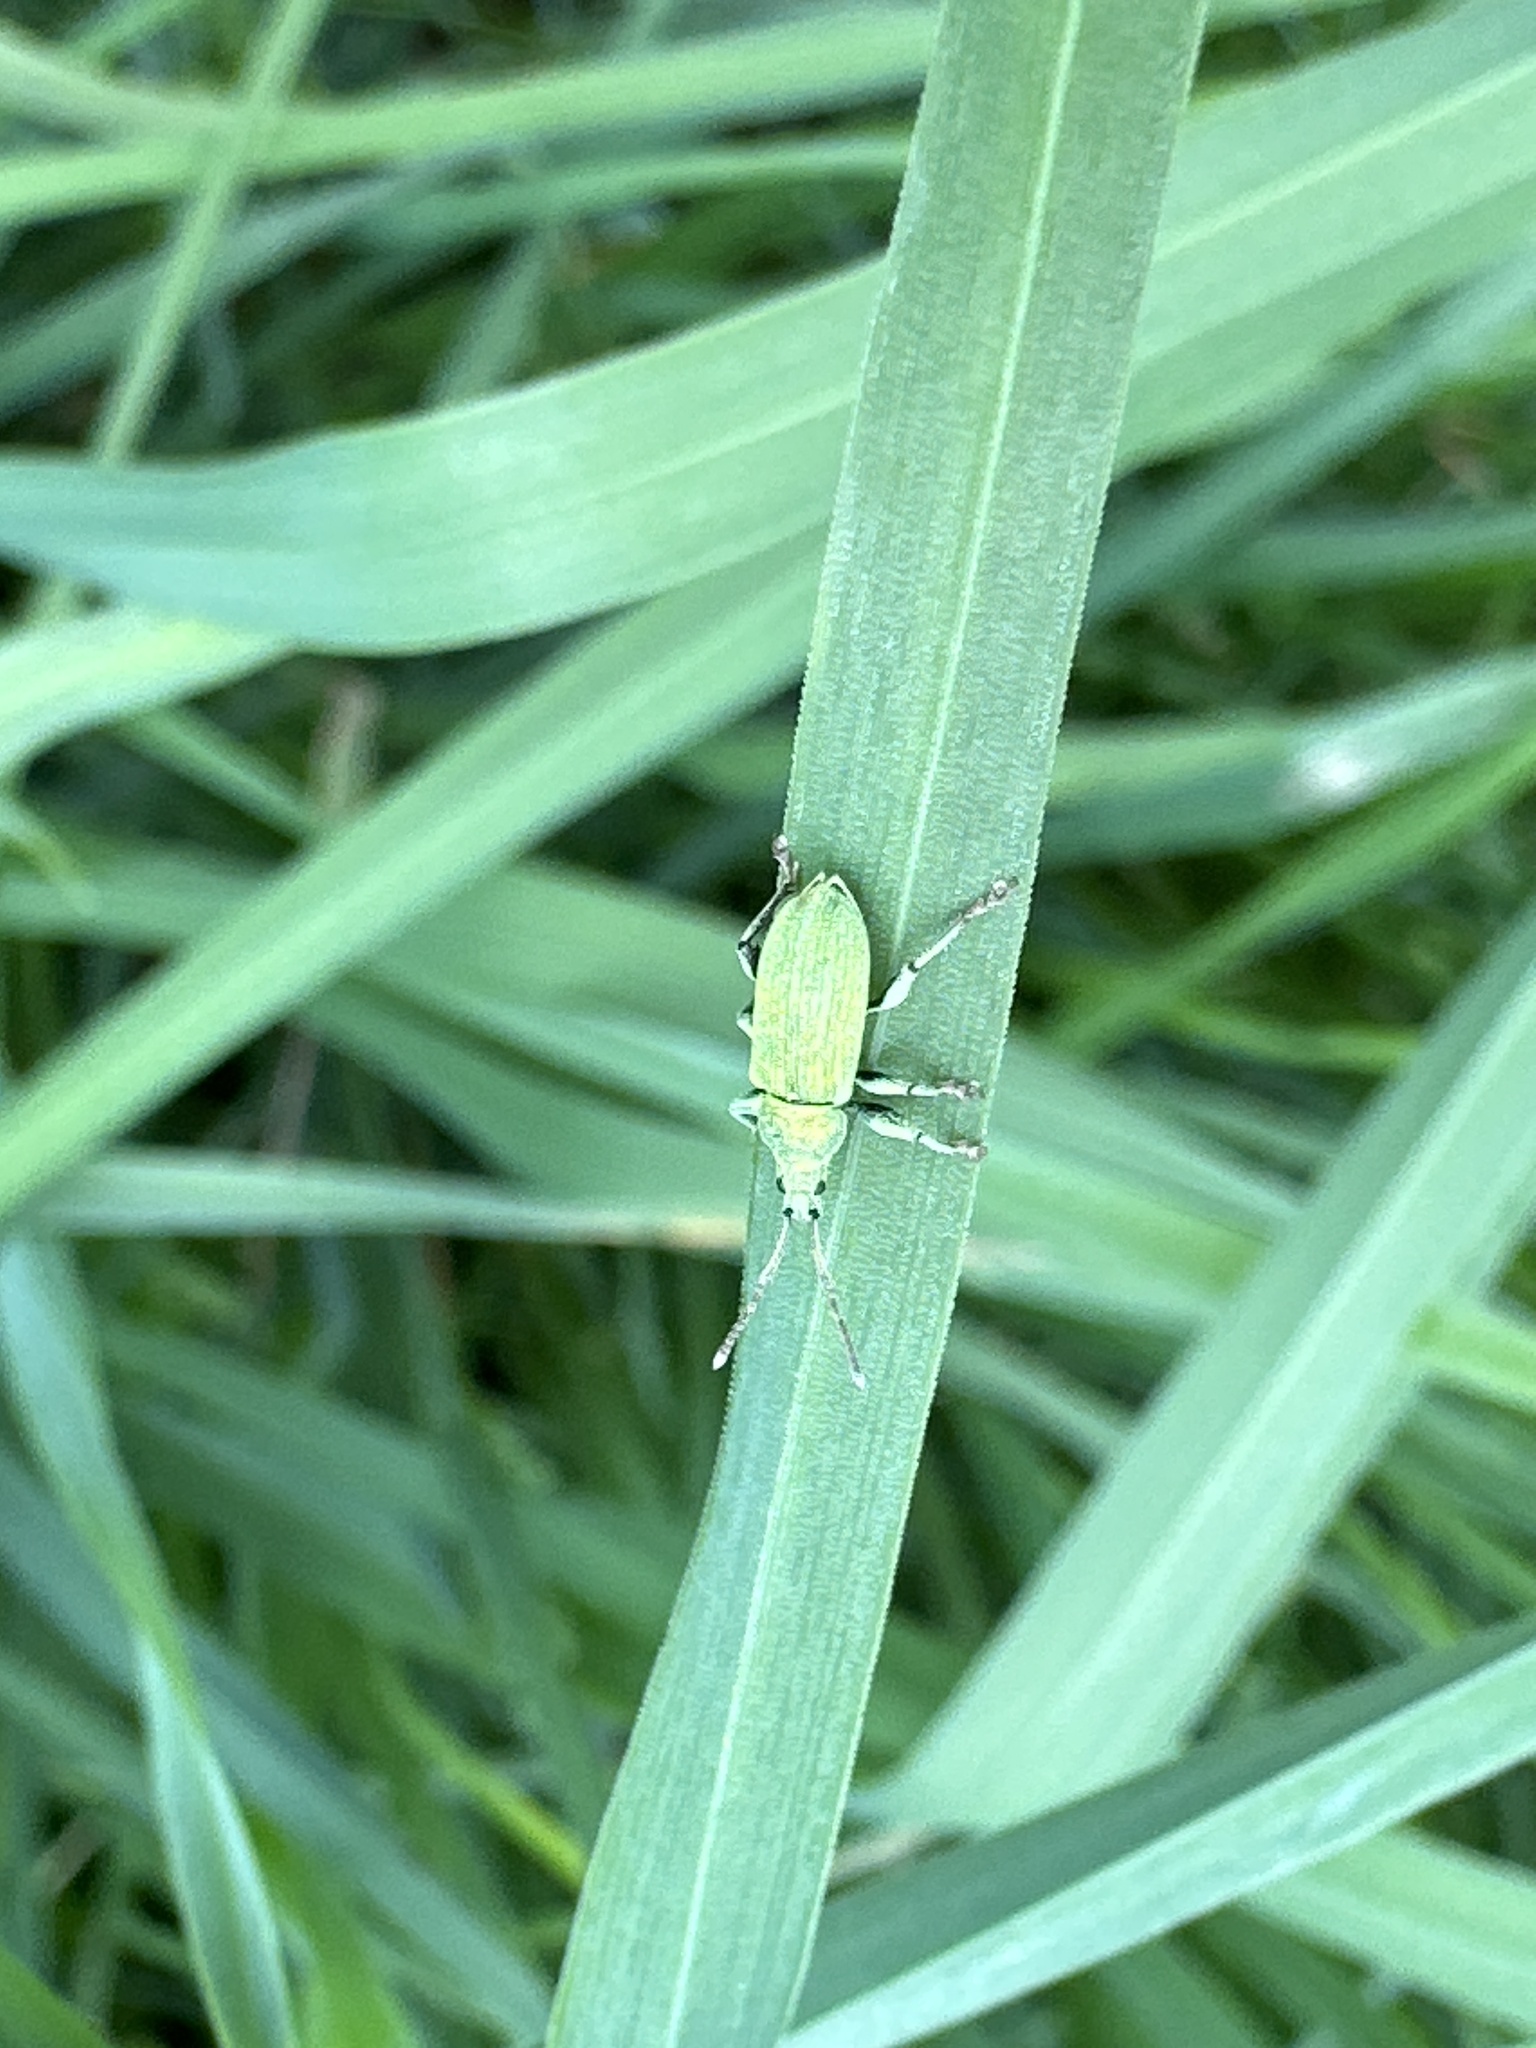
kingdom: Animalia
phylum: Arthropoda
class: Insecta
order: Coleoptera
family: Curculionidae
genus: Phyllobius
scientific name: Phyllobius maculicornis
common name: Green leaf weevil
